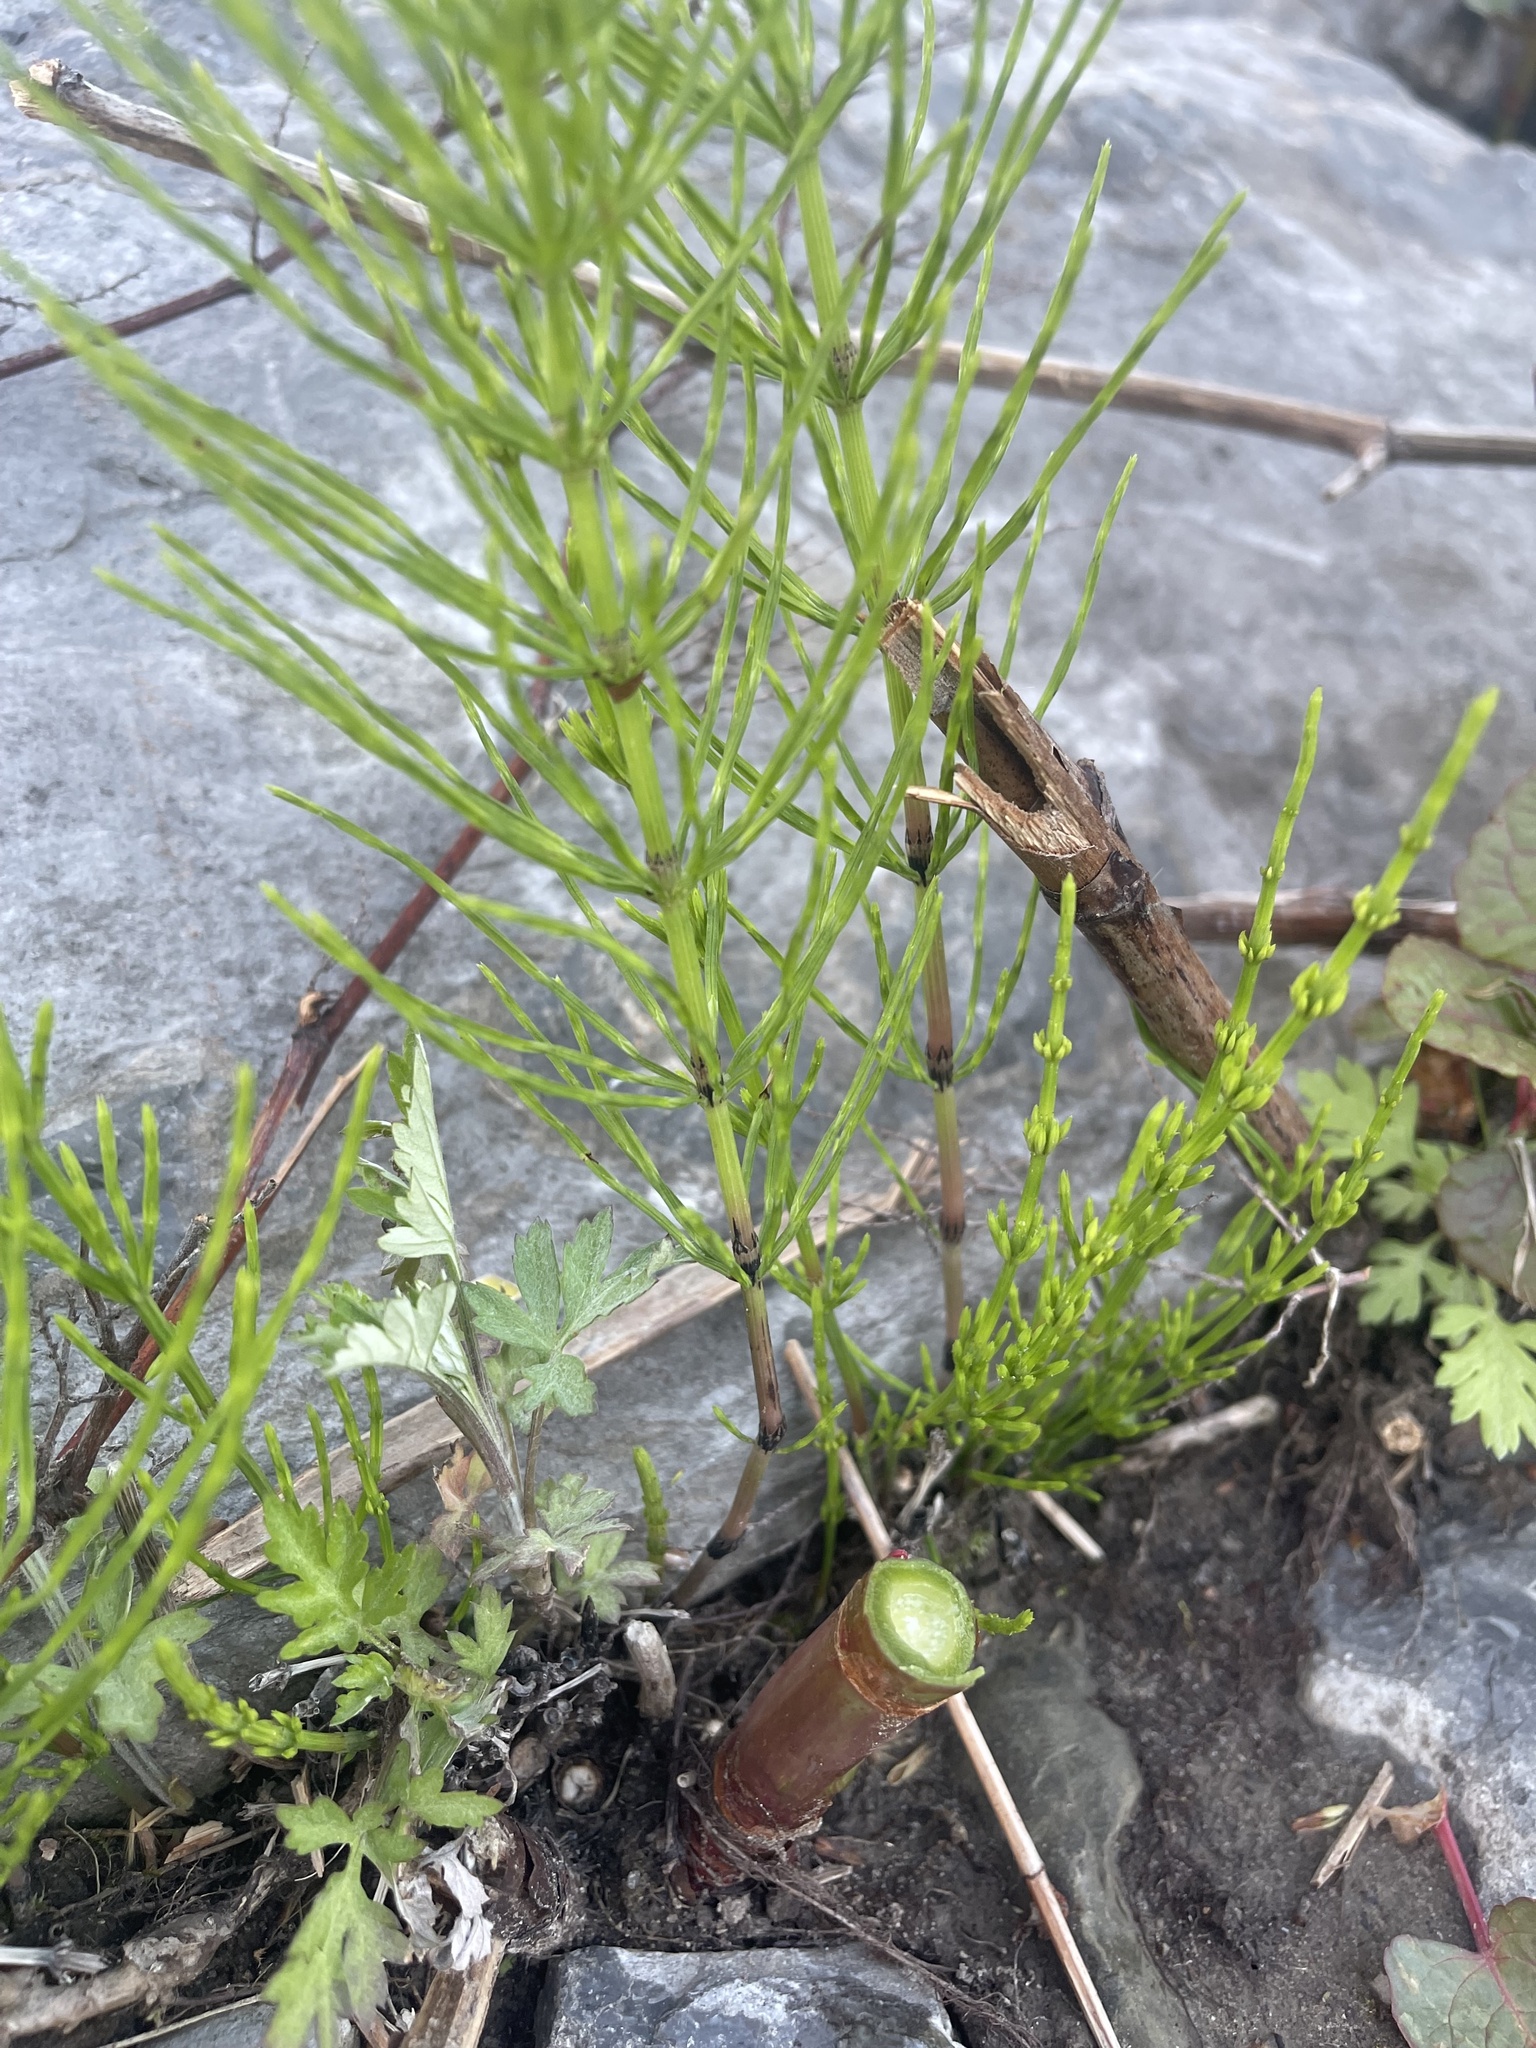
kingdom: Plantae
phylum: Tracheophyta
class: Polypodiopsida
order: Equisetales
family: Equisetaceae
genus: Equisetum
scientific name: Equisetum arvense
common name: Field horsetail
